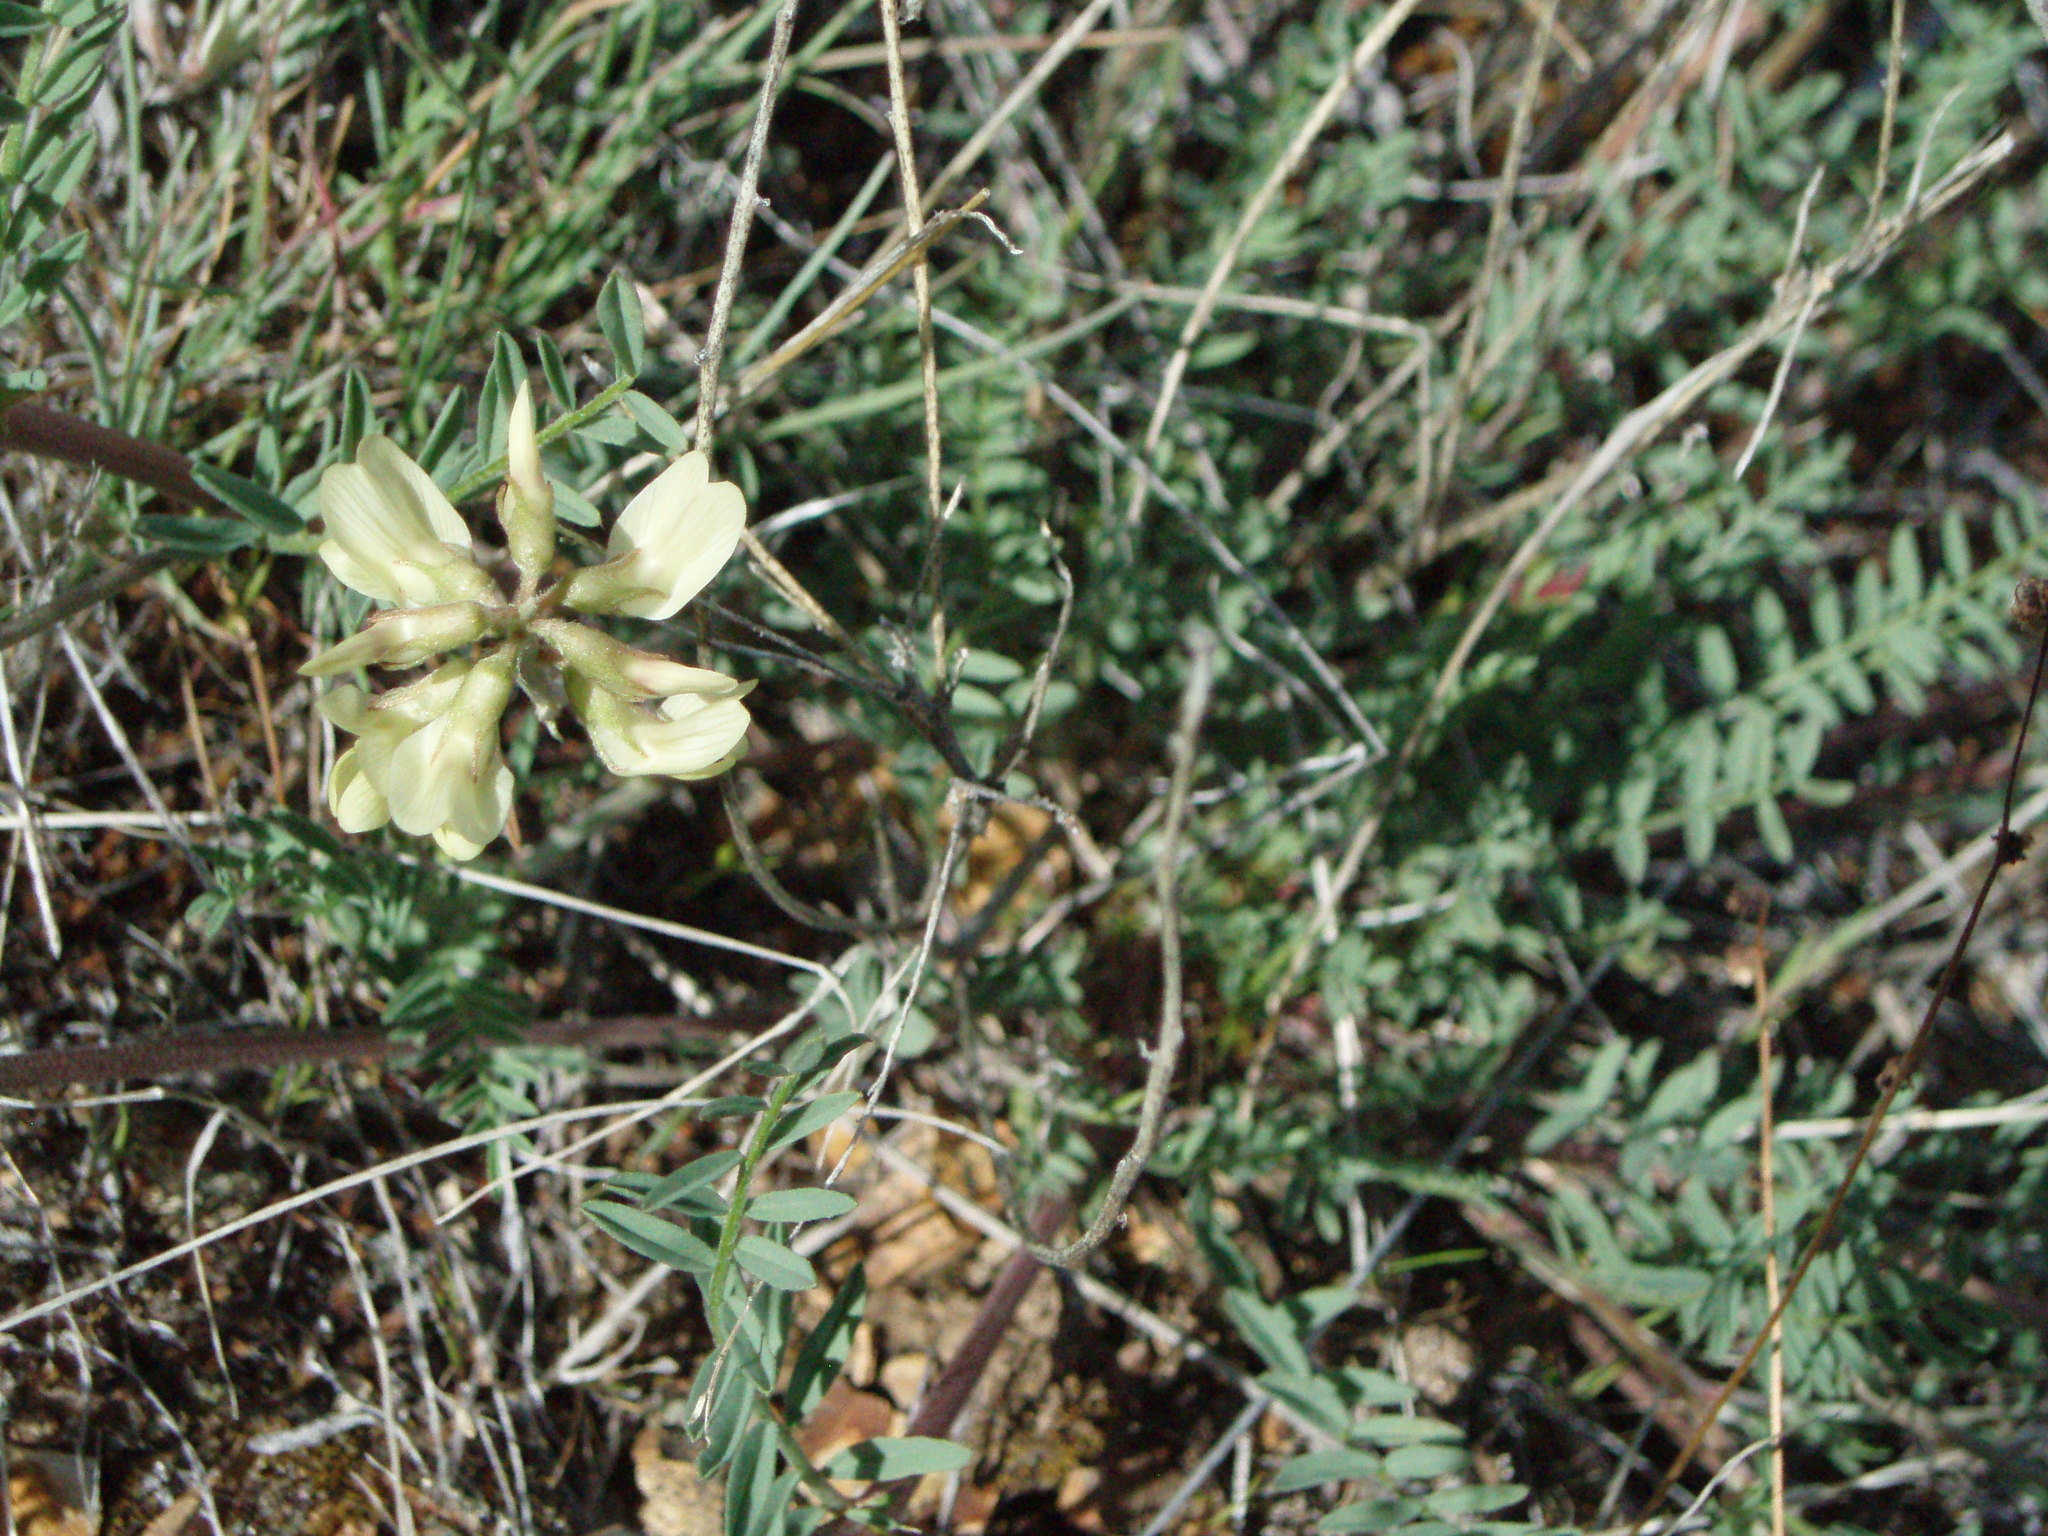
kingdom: Plantae
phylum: Tracheophyta
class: Magnoliopsida
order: Fabales
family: Fabaceae
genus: Astragalus
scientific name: Astragalus filipes
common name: Basalt milk-vetch
